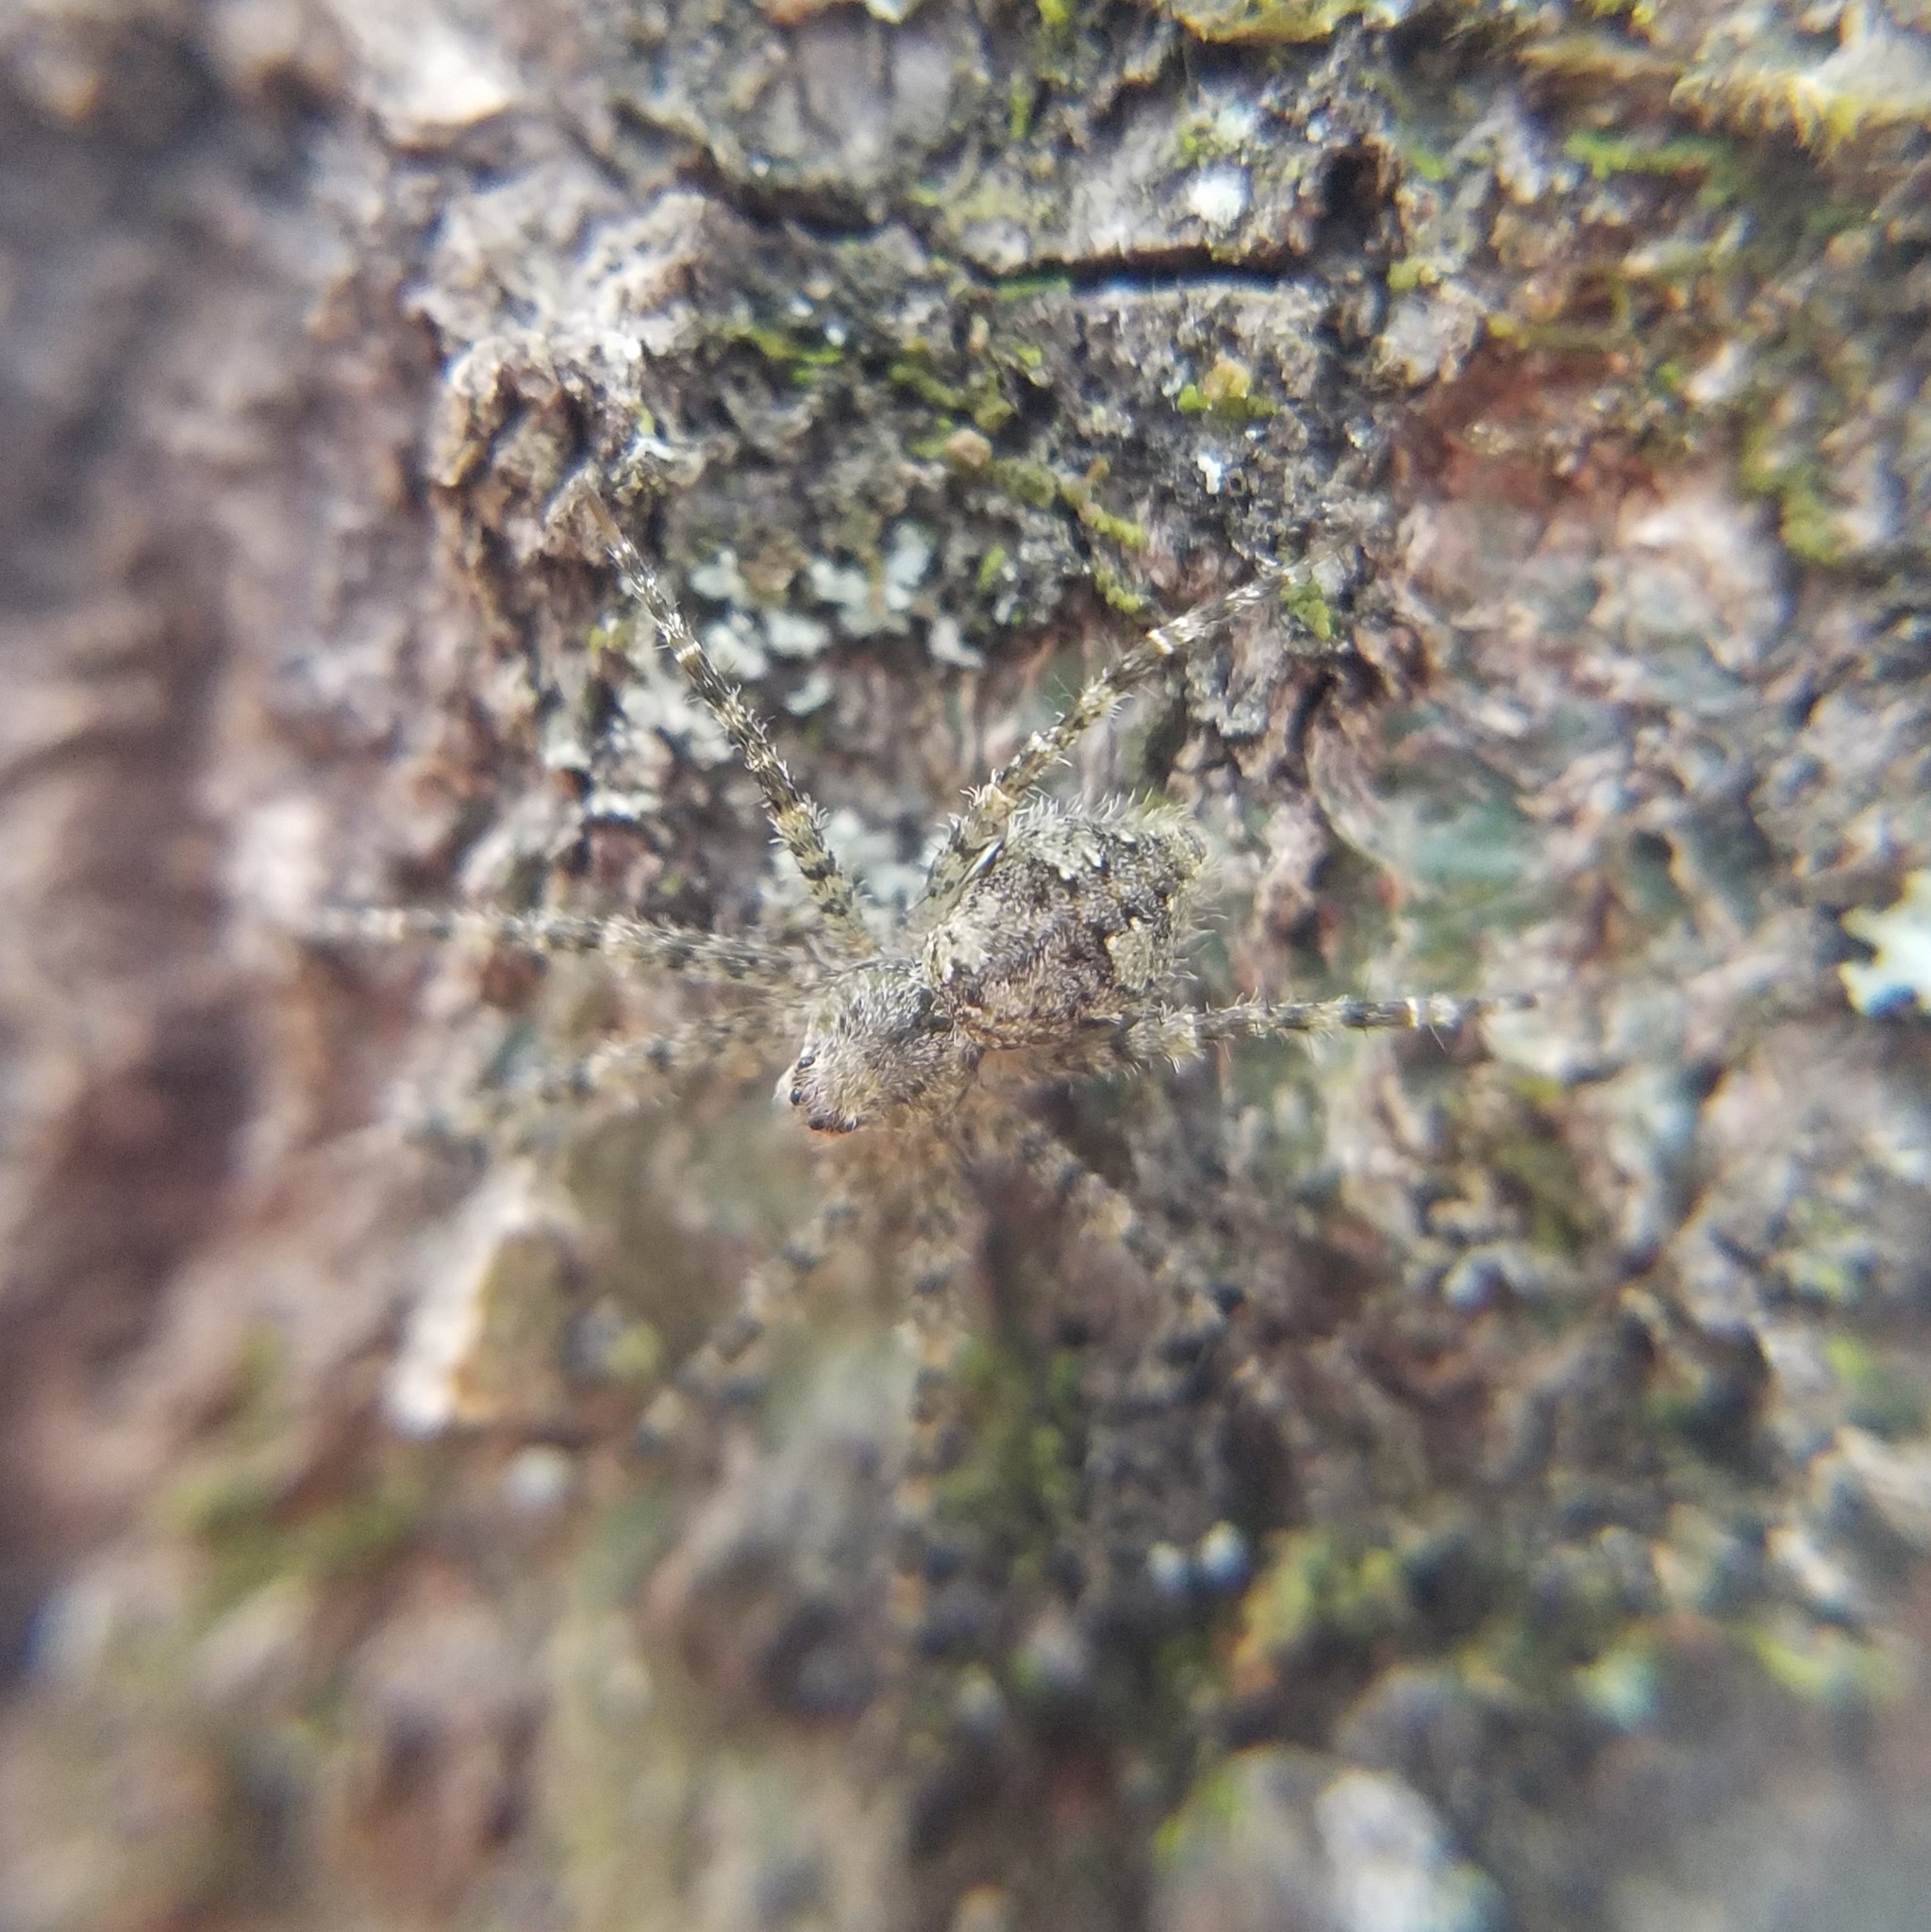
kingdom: Animalia
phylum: Arthropoda
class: Arachnida
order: Araneae
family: Pisauridae
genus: Dolomedes
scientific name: Dolomedes albineus
